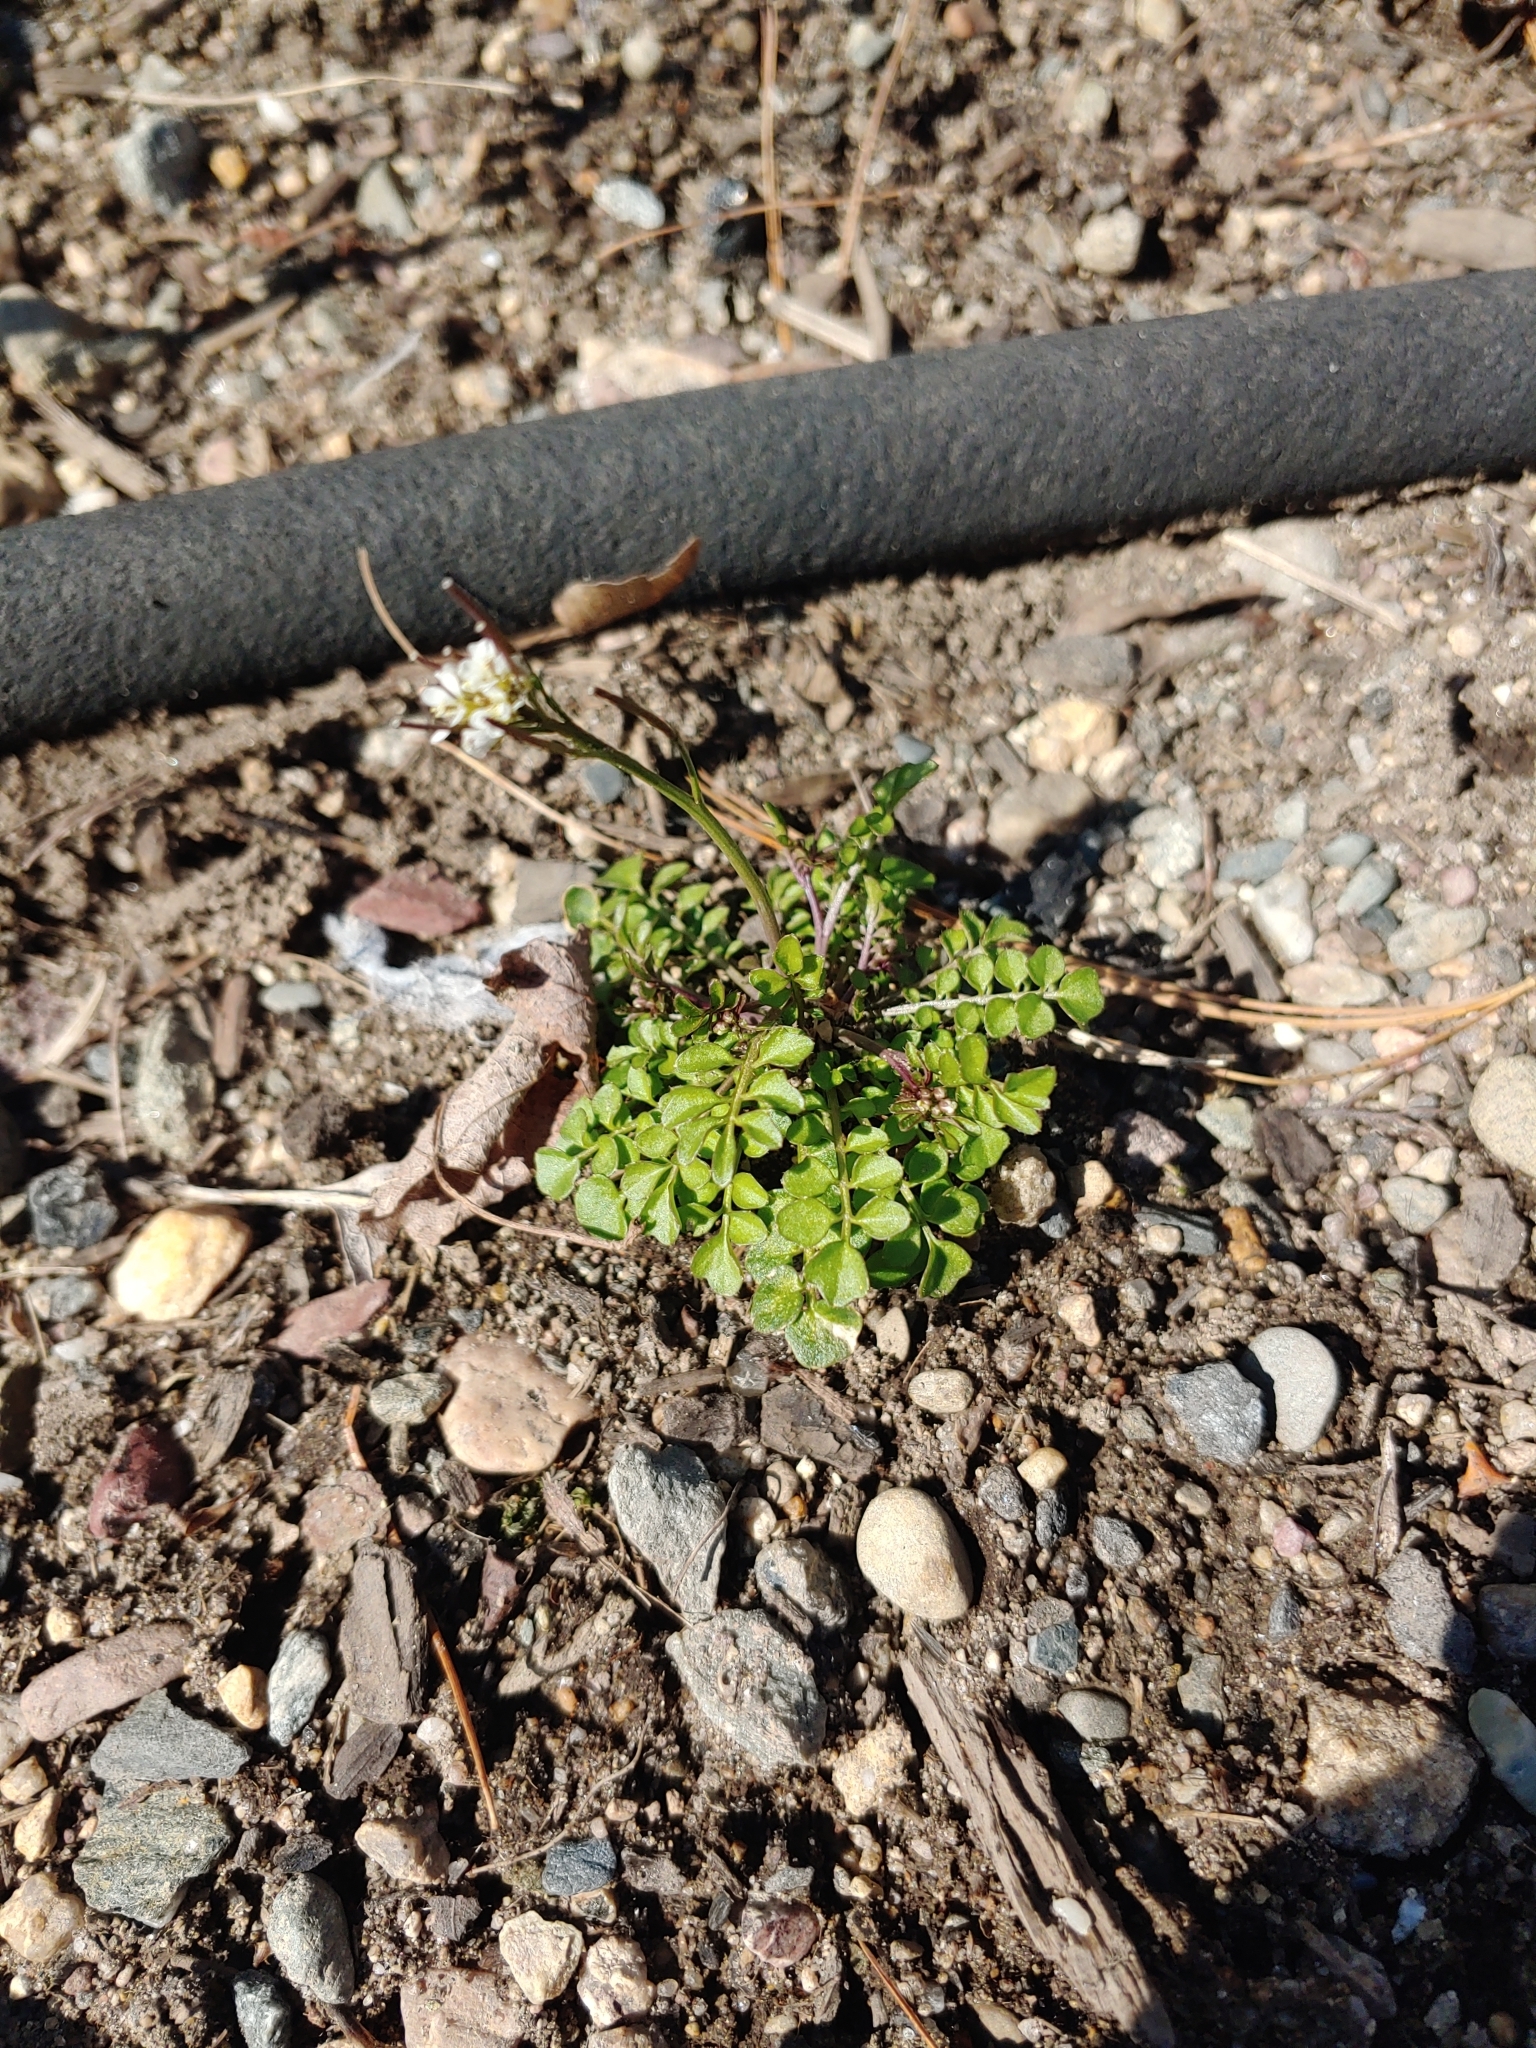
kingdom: Plantae
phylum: Tracheophyta
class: Magnoliopsida
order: Brassicales
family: Brassicaceae
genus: Cardamine
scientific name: Cardamine hirsuta
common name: Hairy bittercress
